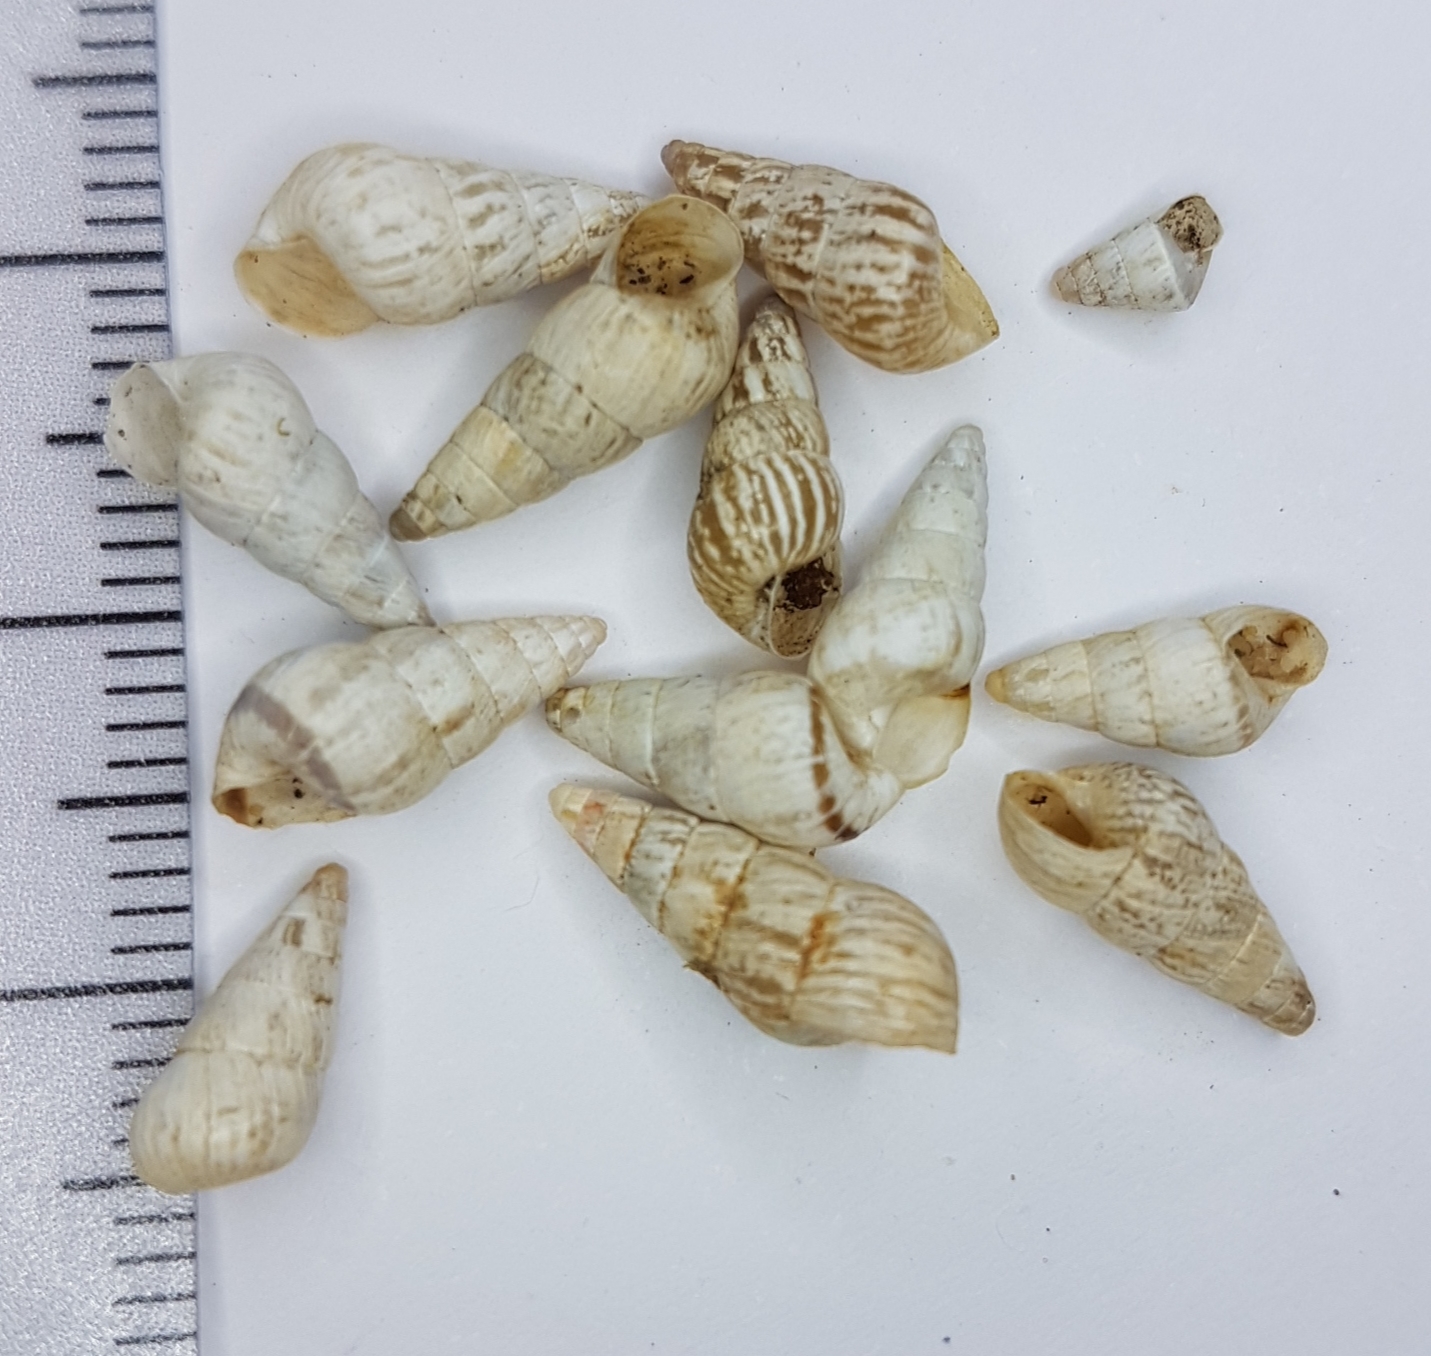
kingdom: Animalia
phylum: Mollusca
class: Gastropoda
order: Stylommatophora
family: Geomitridae
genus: Cochlicella
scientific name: Cochlicella acuta
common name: Pointed snail
